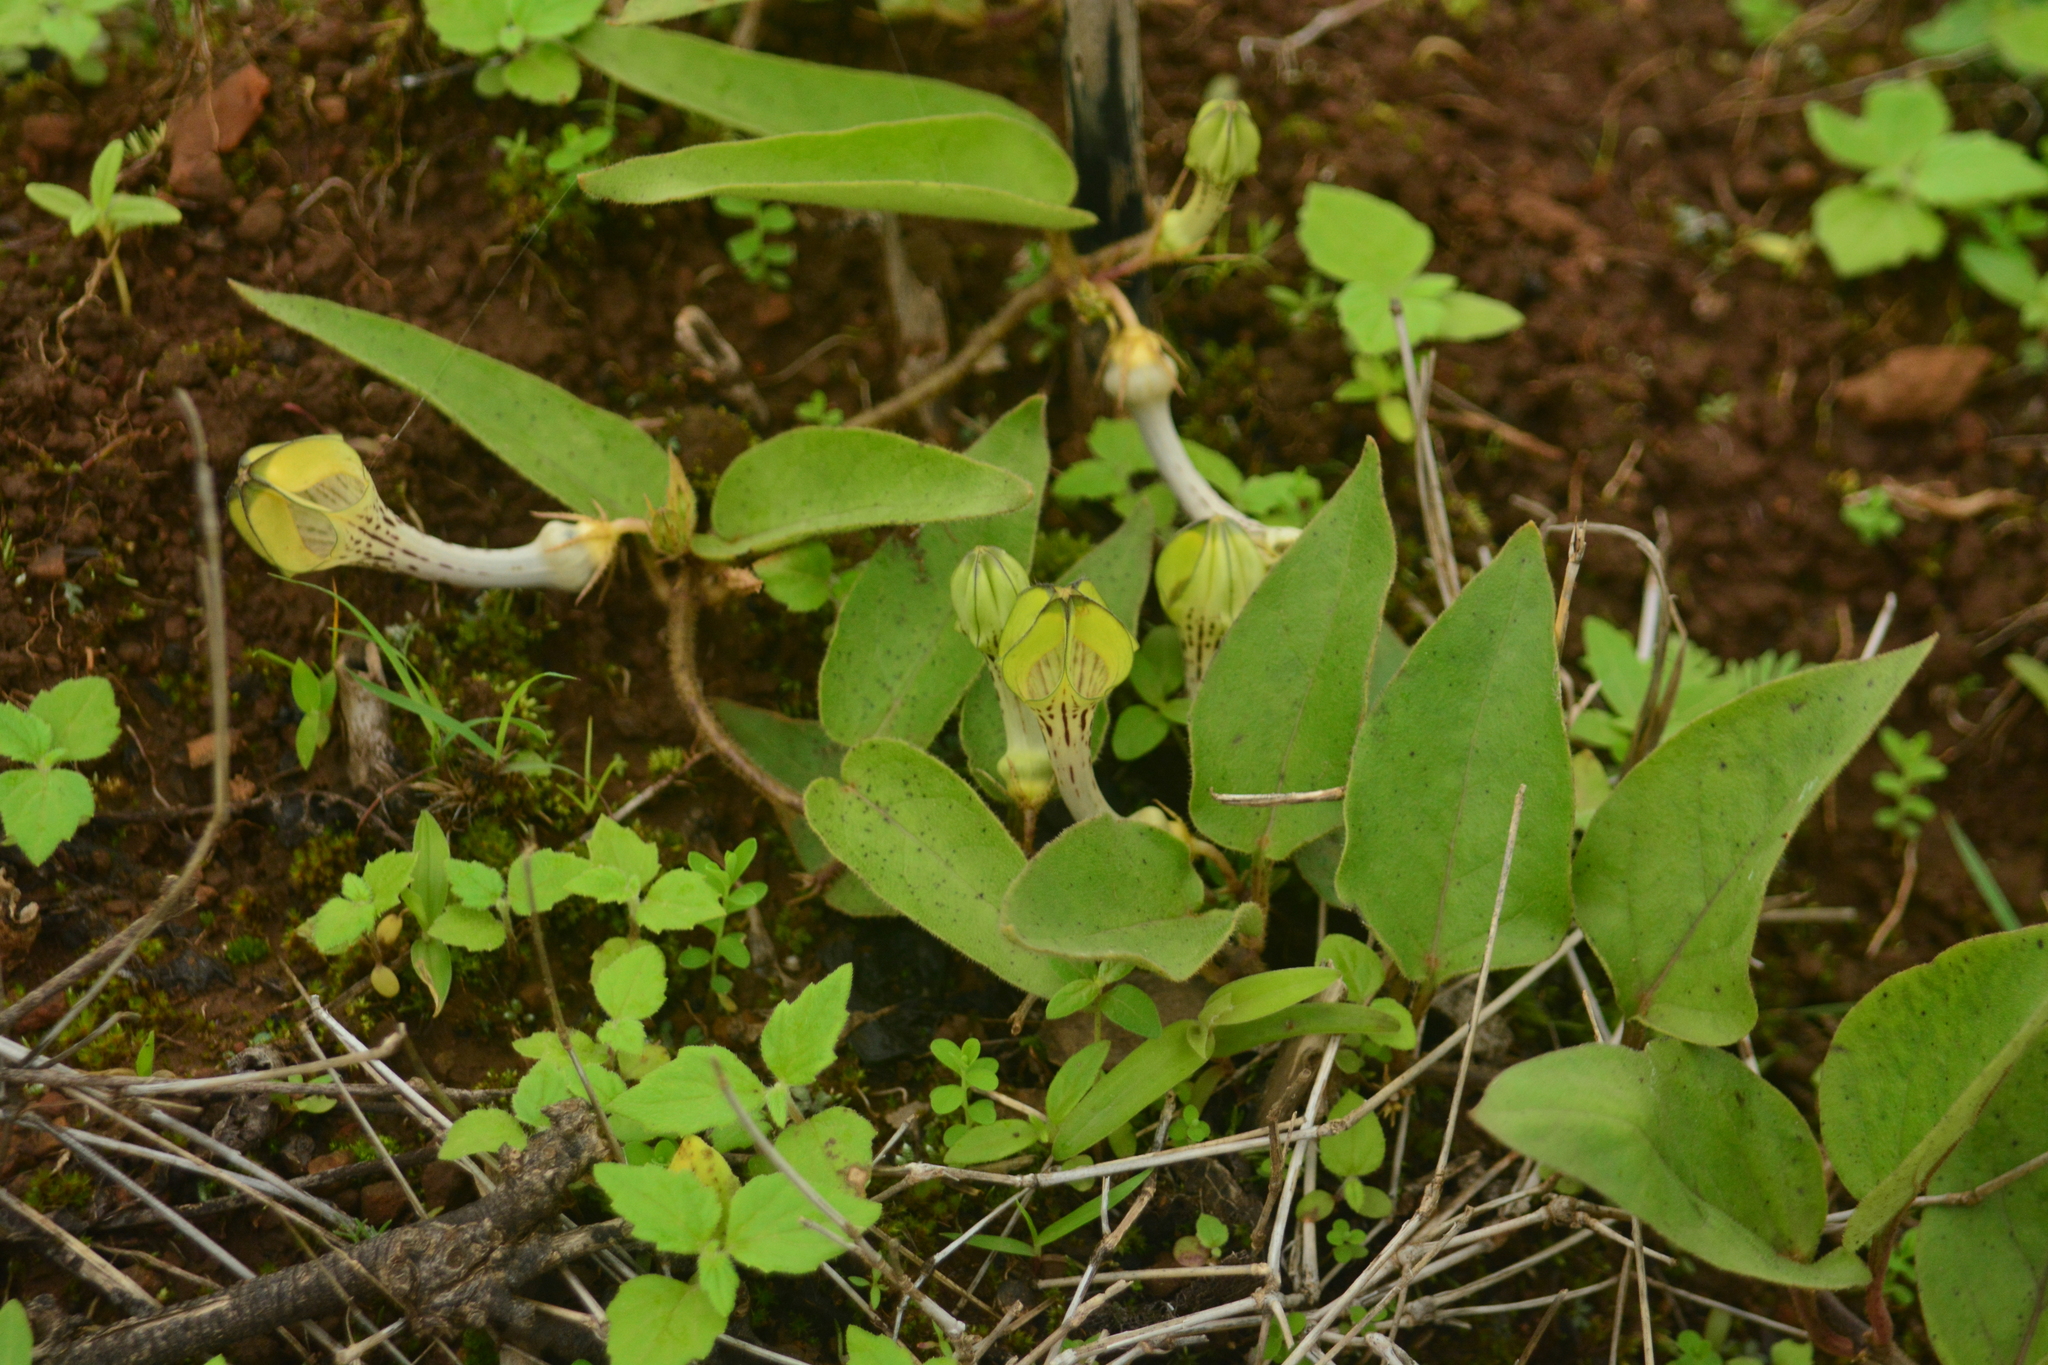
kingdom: Plantae
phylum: Tracheophyta
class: Magnoliopsida
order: Gentianales
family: Apocynaceae
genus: Ceropegia
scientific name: Ceropegia hirsuta
